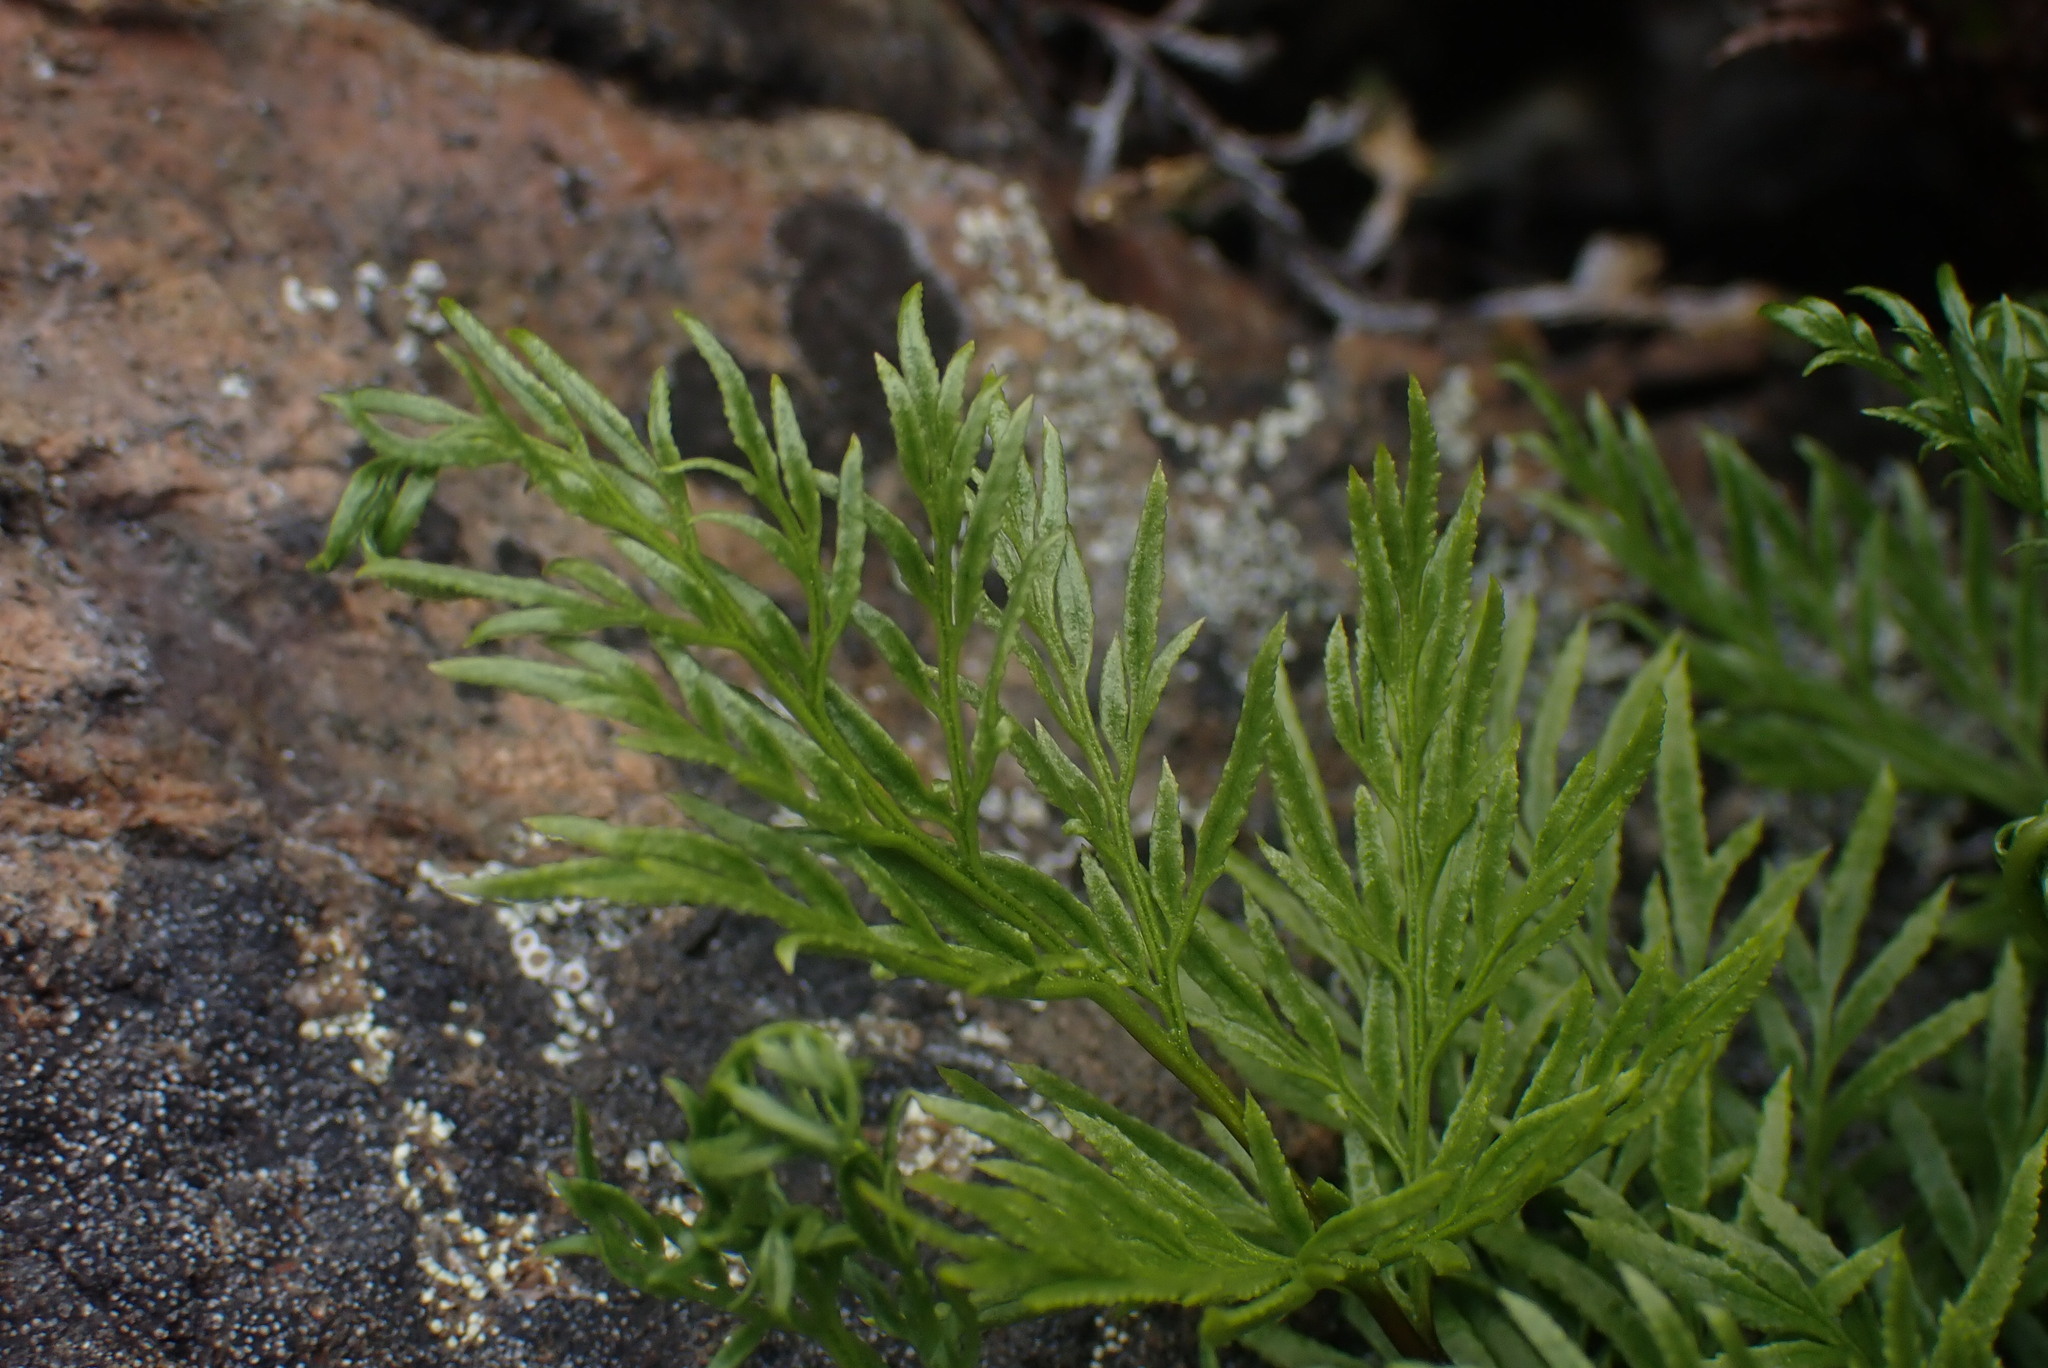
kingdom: Plantae
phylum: Tracheophyta
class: Polypodiopsida
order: Polypodiales
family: Pteridaceae
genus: Aspidotis
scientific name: Aspidotis densa
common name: Indian's dream
